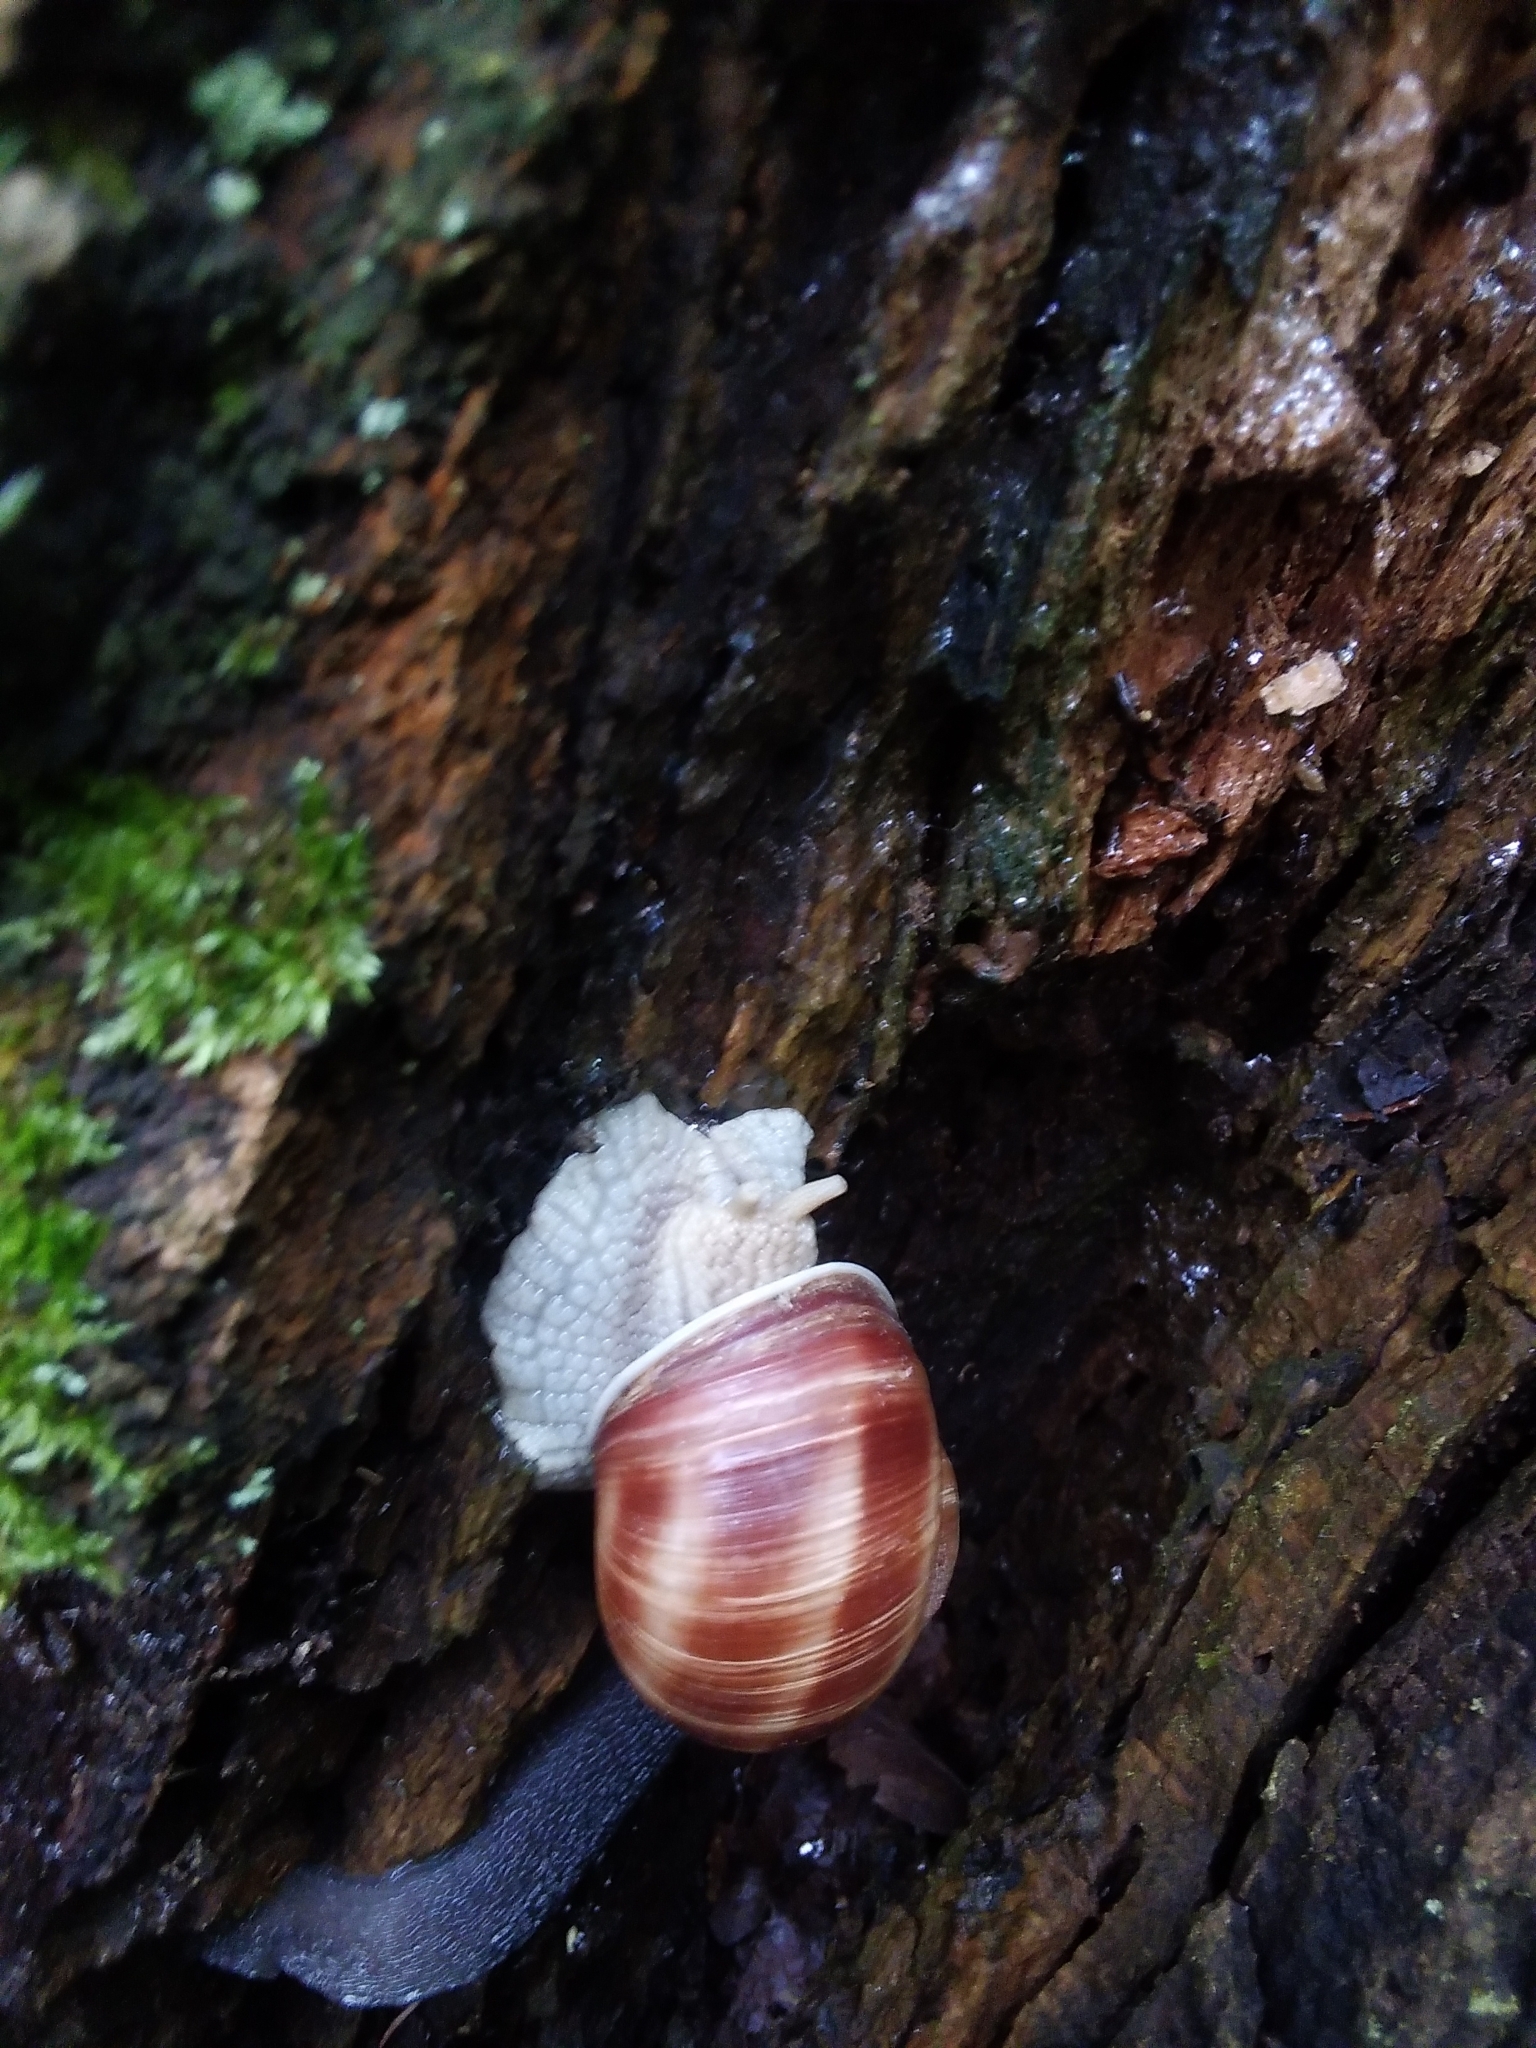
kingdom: Animalia
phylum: Mollusca
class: Gastropoda
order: Stylommatophora
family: Helicidae
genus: Helix
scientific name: Helix pomatia
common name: Roman snail
